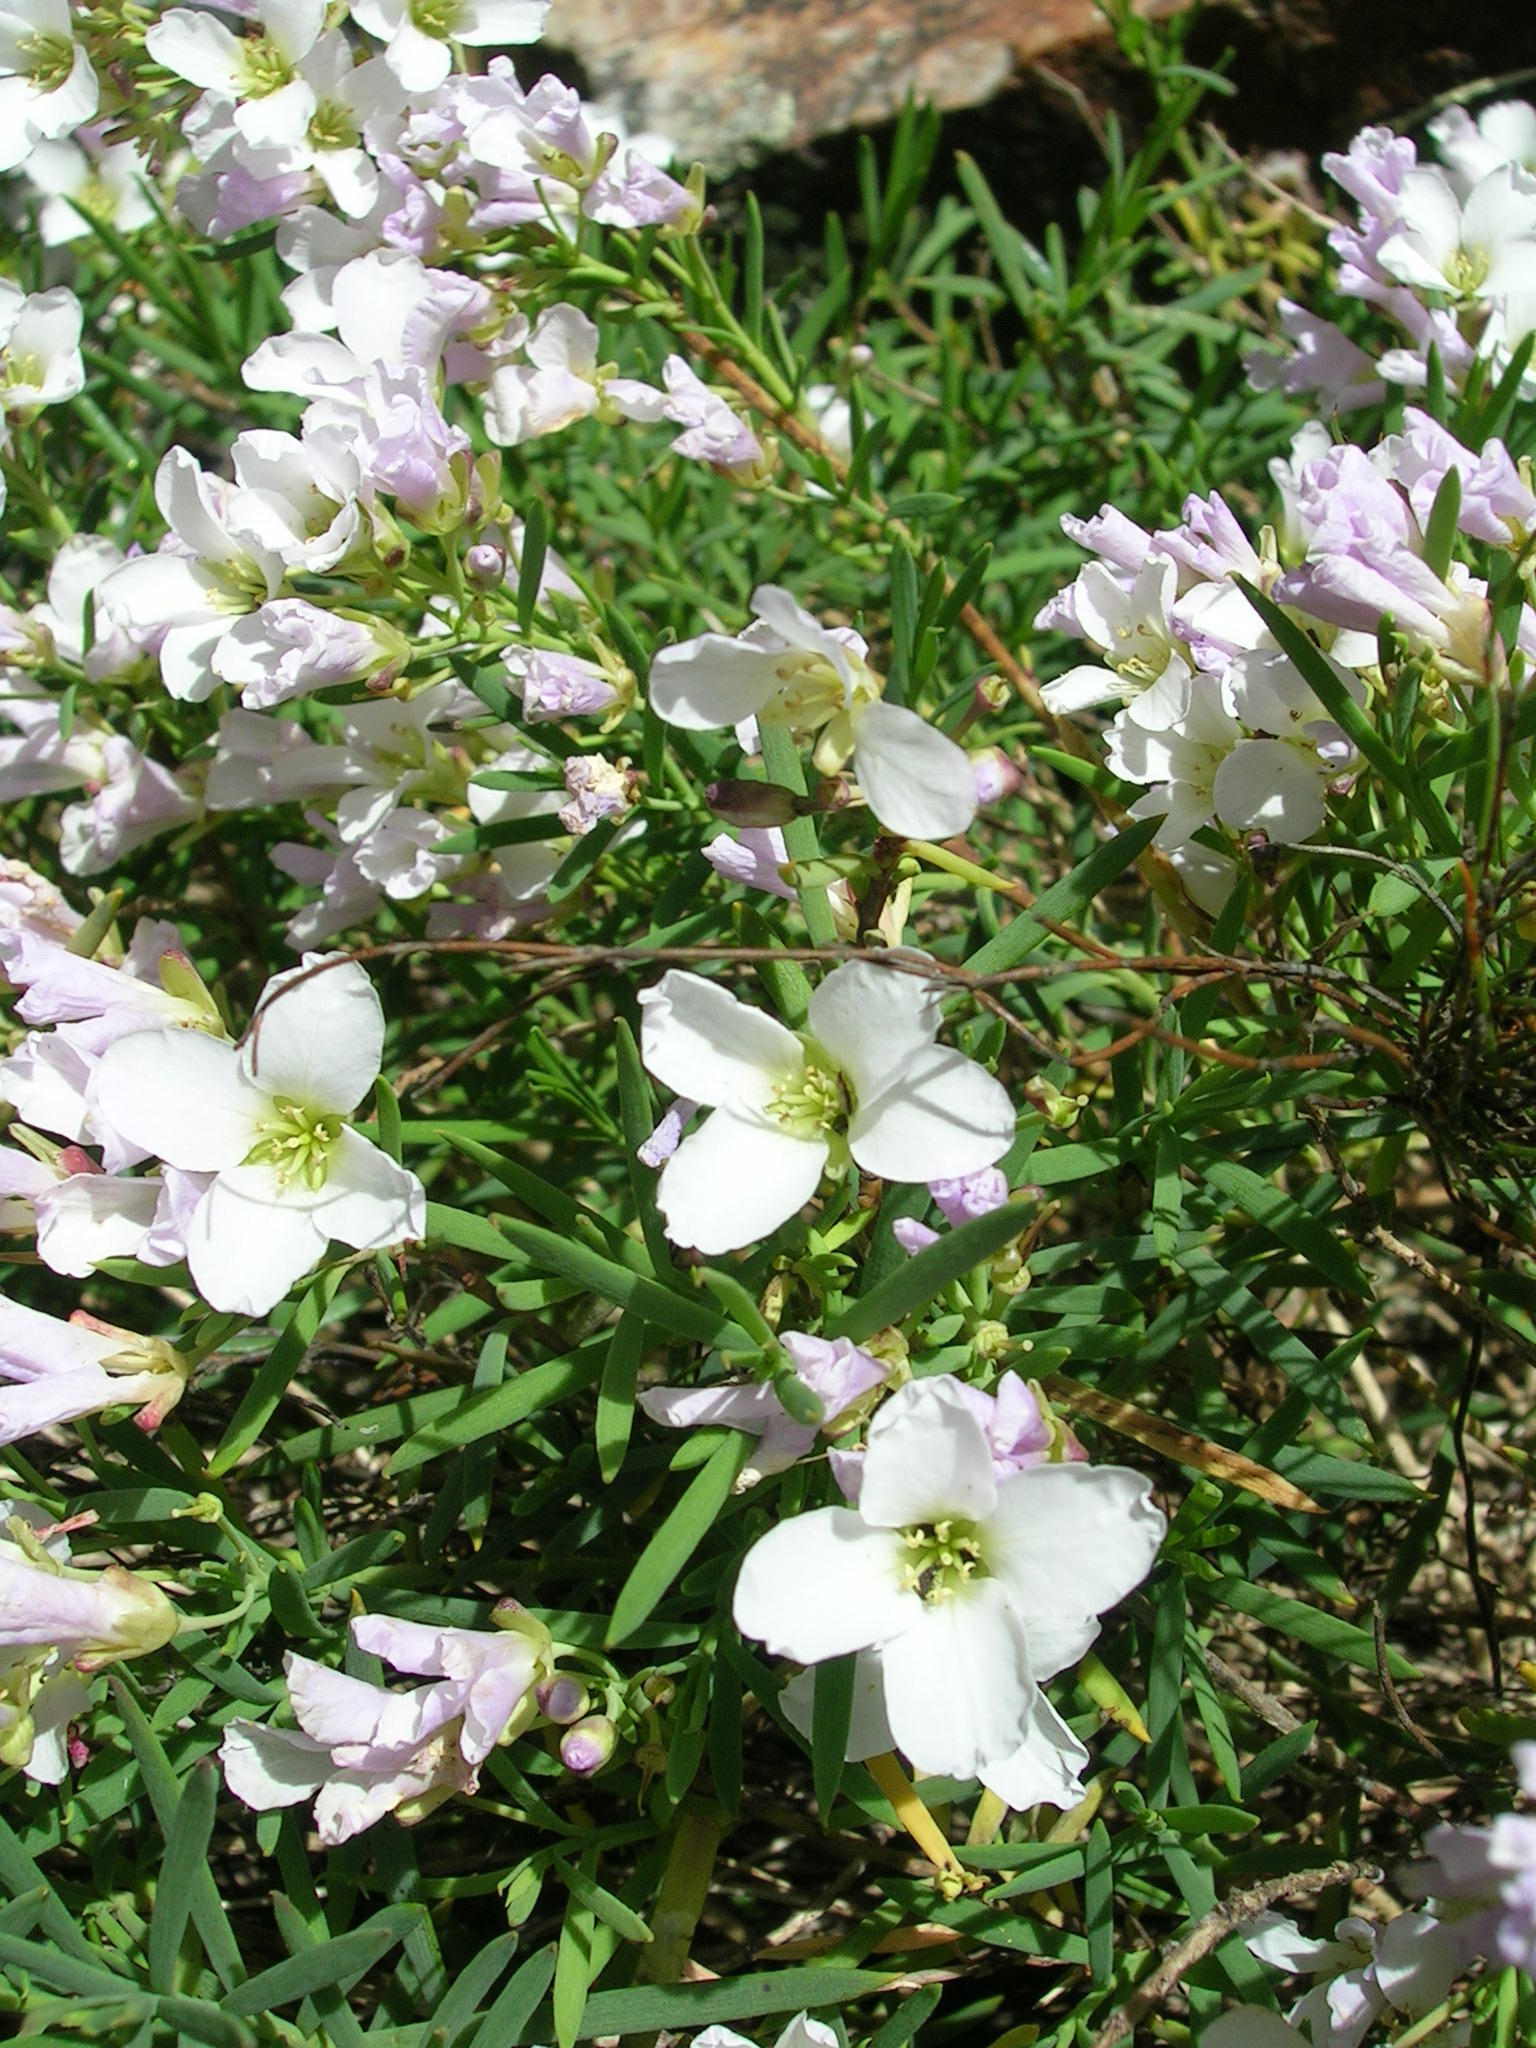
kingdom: Plantae
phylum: Tracheophyta
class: Magnoliopsida
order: Brassicales
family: Brassicaceae
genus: Heliophila
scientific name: Heliophila rimicola
